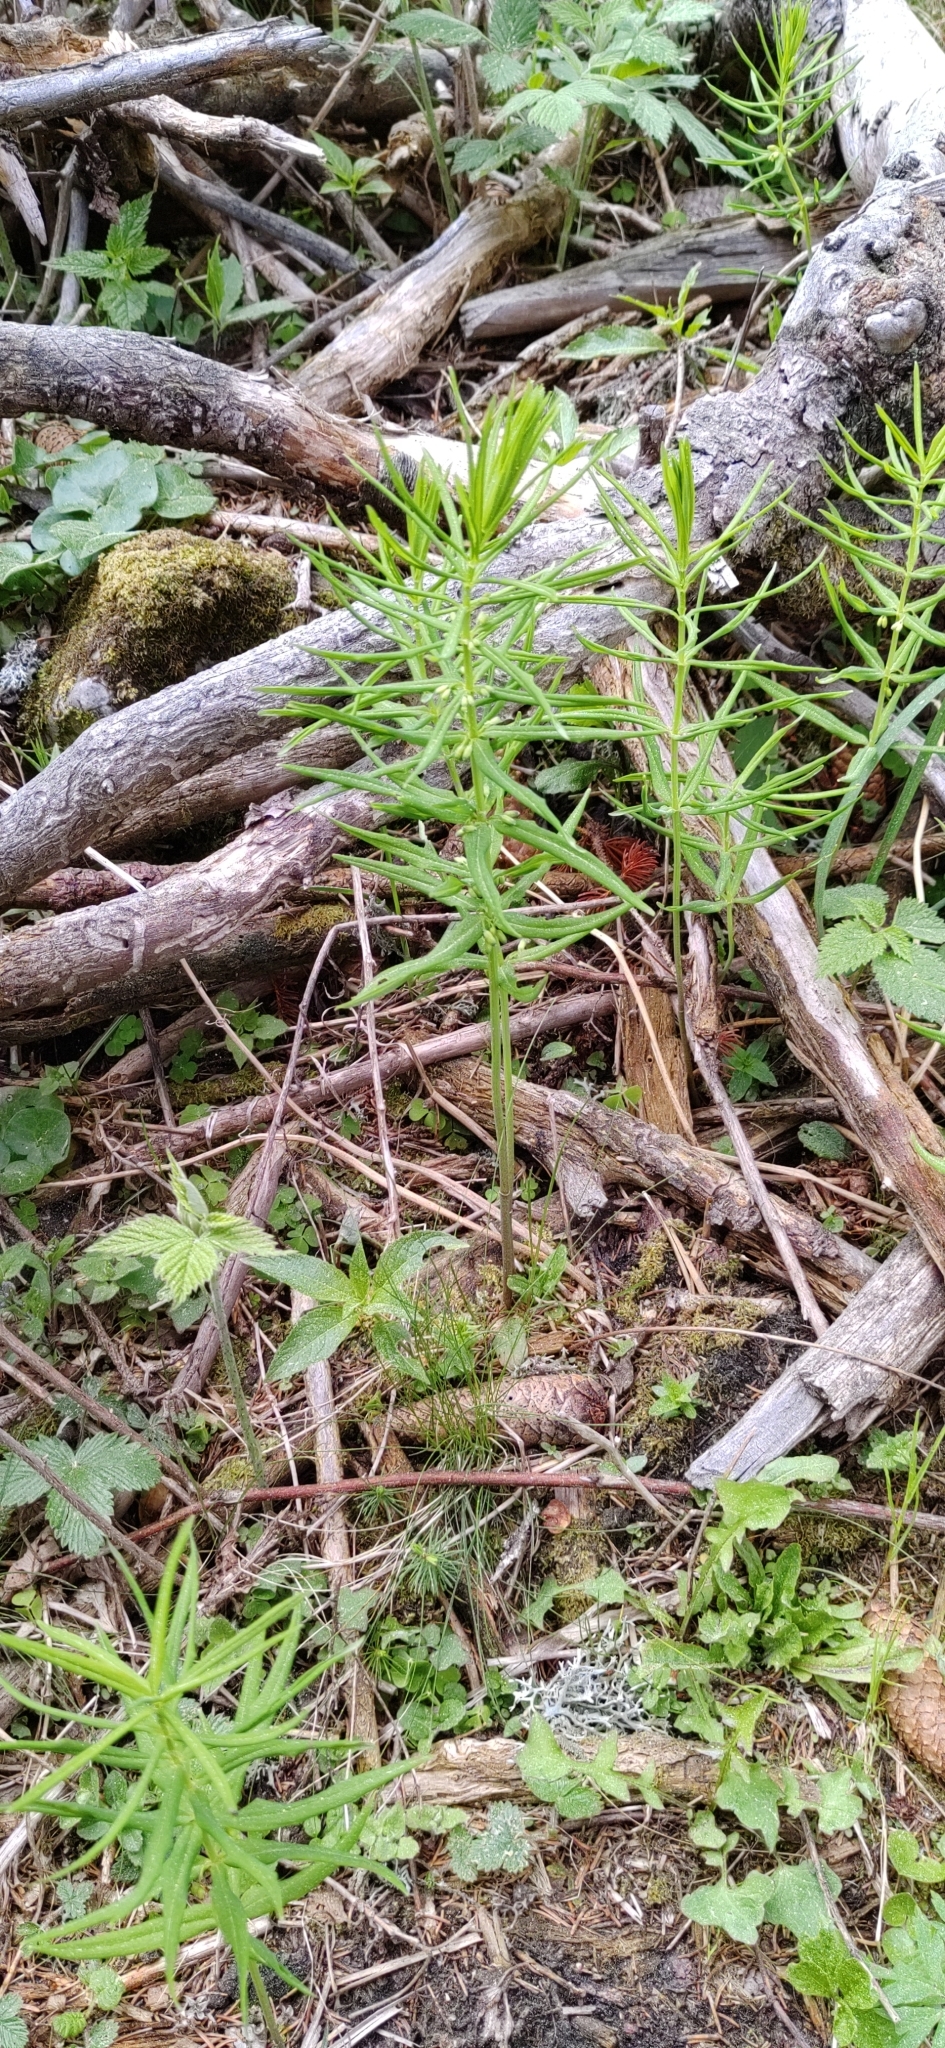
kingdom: Plantae
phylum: Tracheophyta
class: Liliopsida
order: Asparagales
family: Asparagaceae
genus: Polygonatum
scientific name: Polygonatum verticillatum
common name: Whorled solomon's-seal
